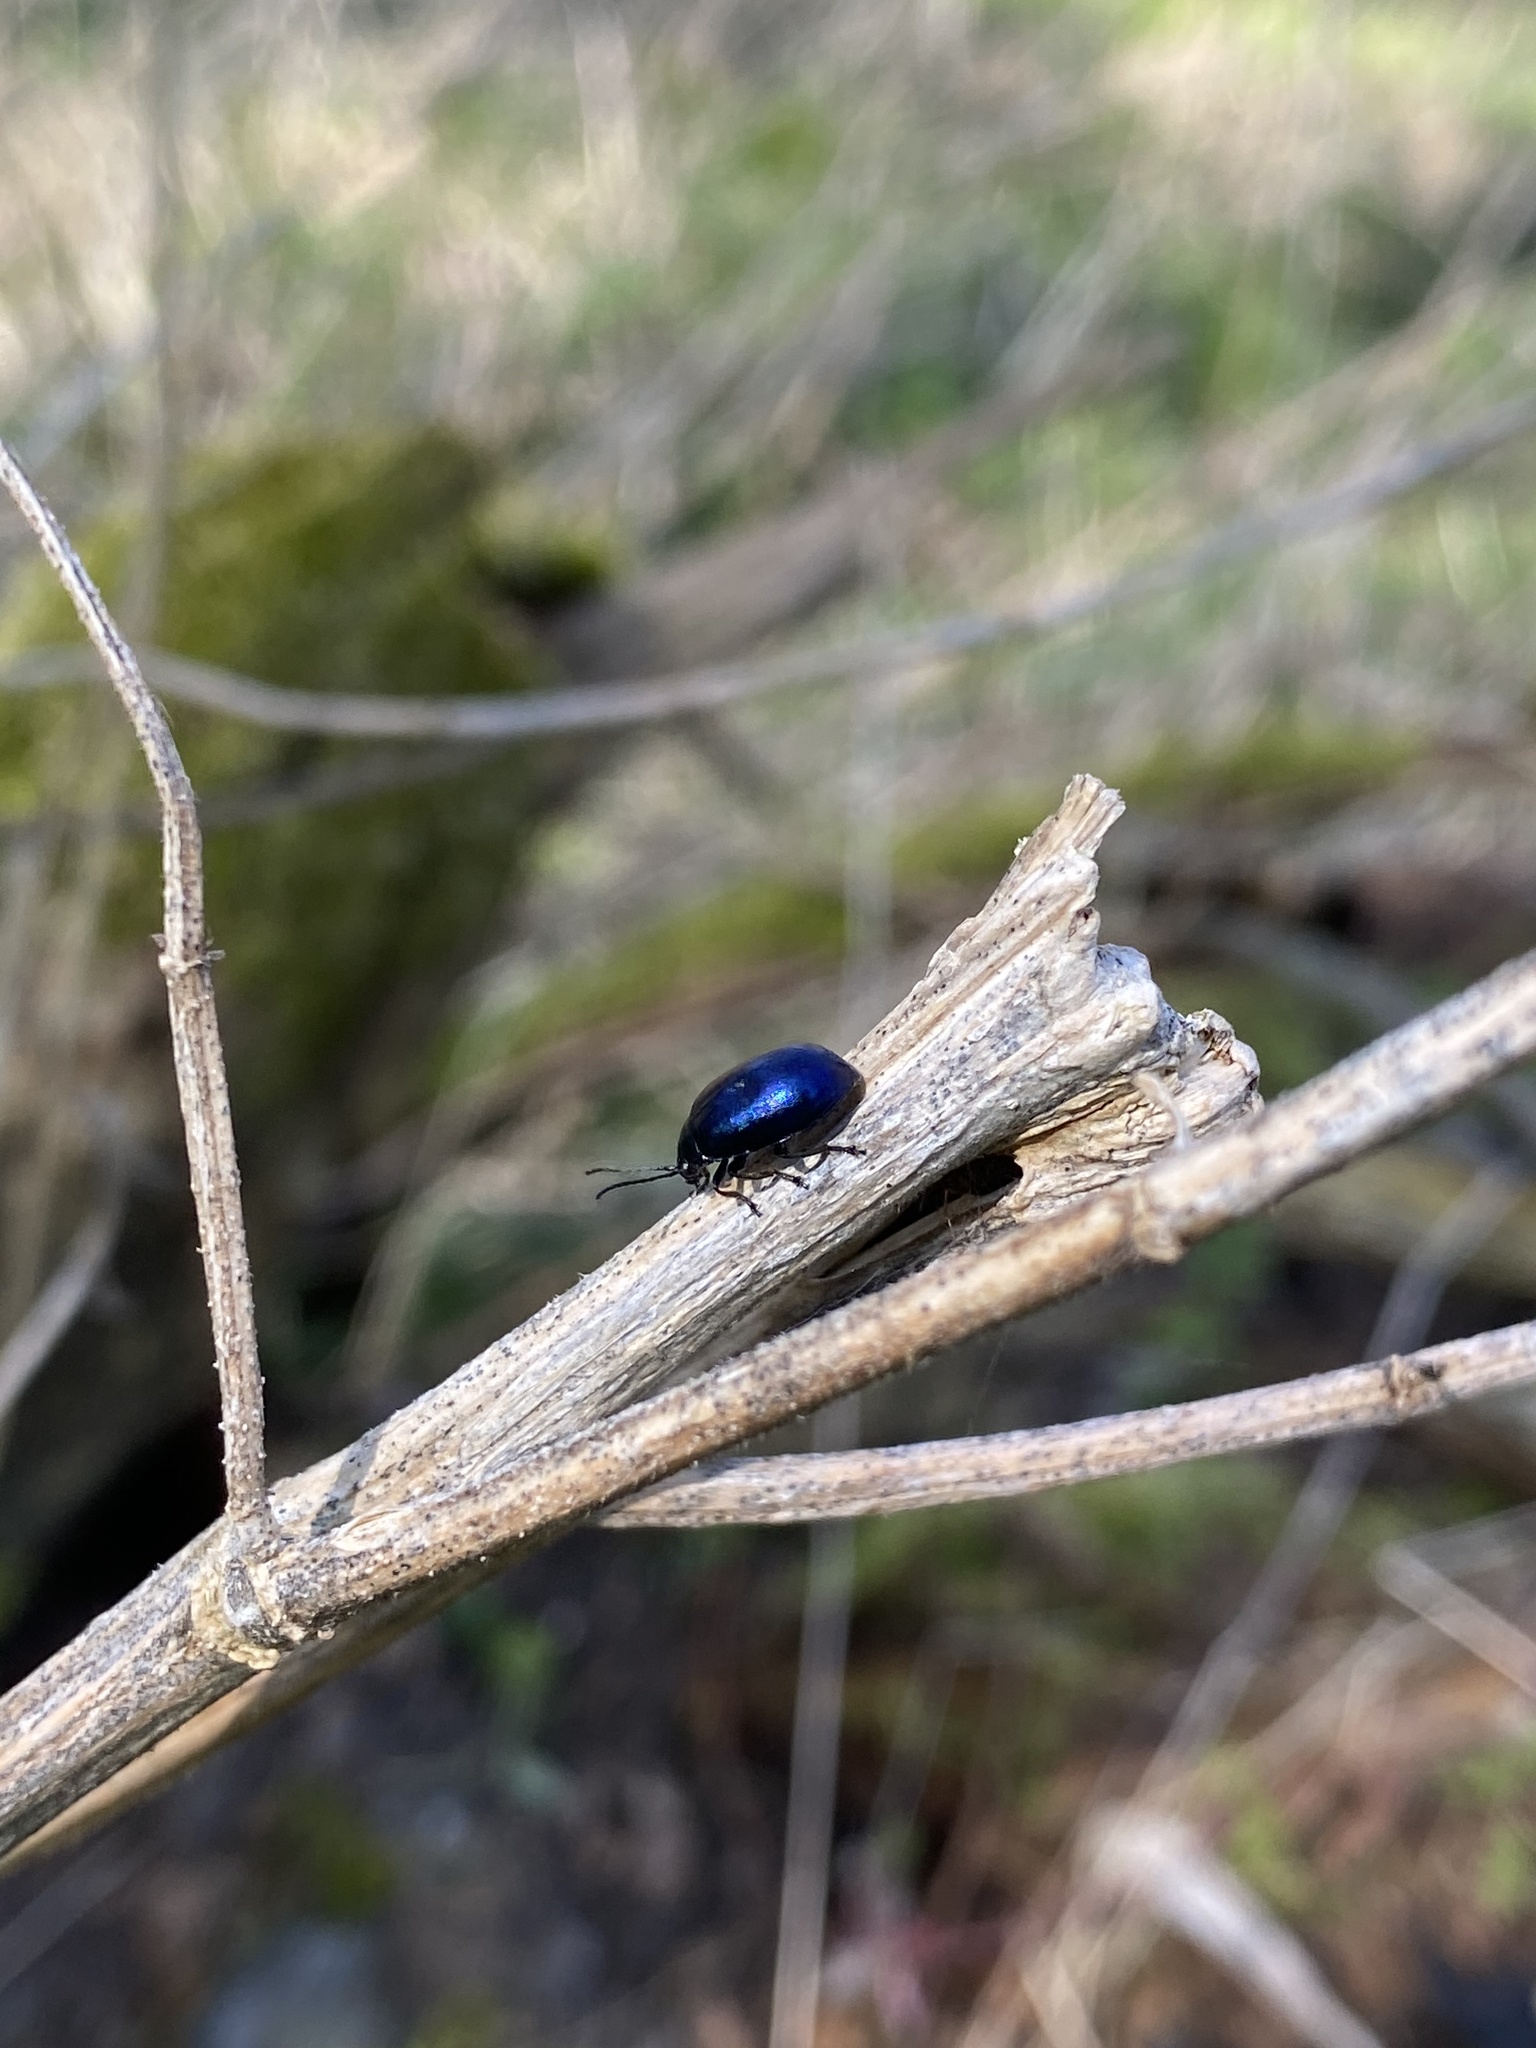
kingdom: Animalia
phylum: Arthropoda
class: Insecta
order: Coleoptera
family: Chrysomelidae
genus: Agelastica
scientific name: Agelastica alni
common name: Alder leaf beetle
